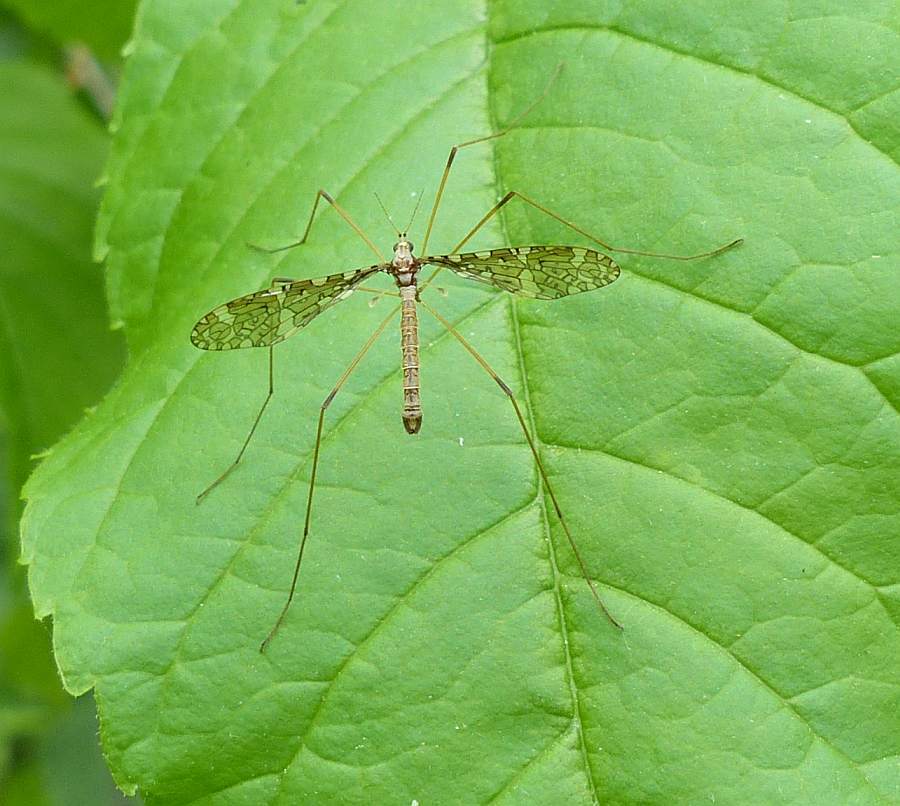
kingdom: Animalia
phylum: Arthropoda
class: Insecta
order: Diptera
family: Limoniidae
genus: Epiphragma
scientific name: Epiphragma fasciapenne
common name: Band-winged crane fly
